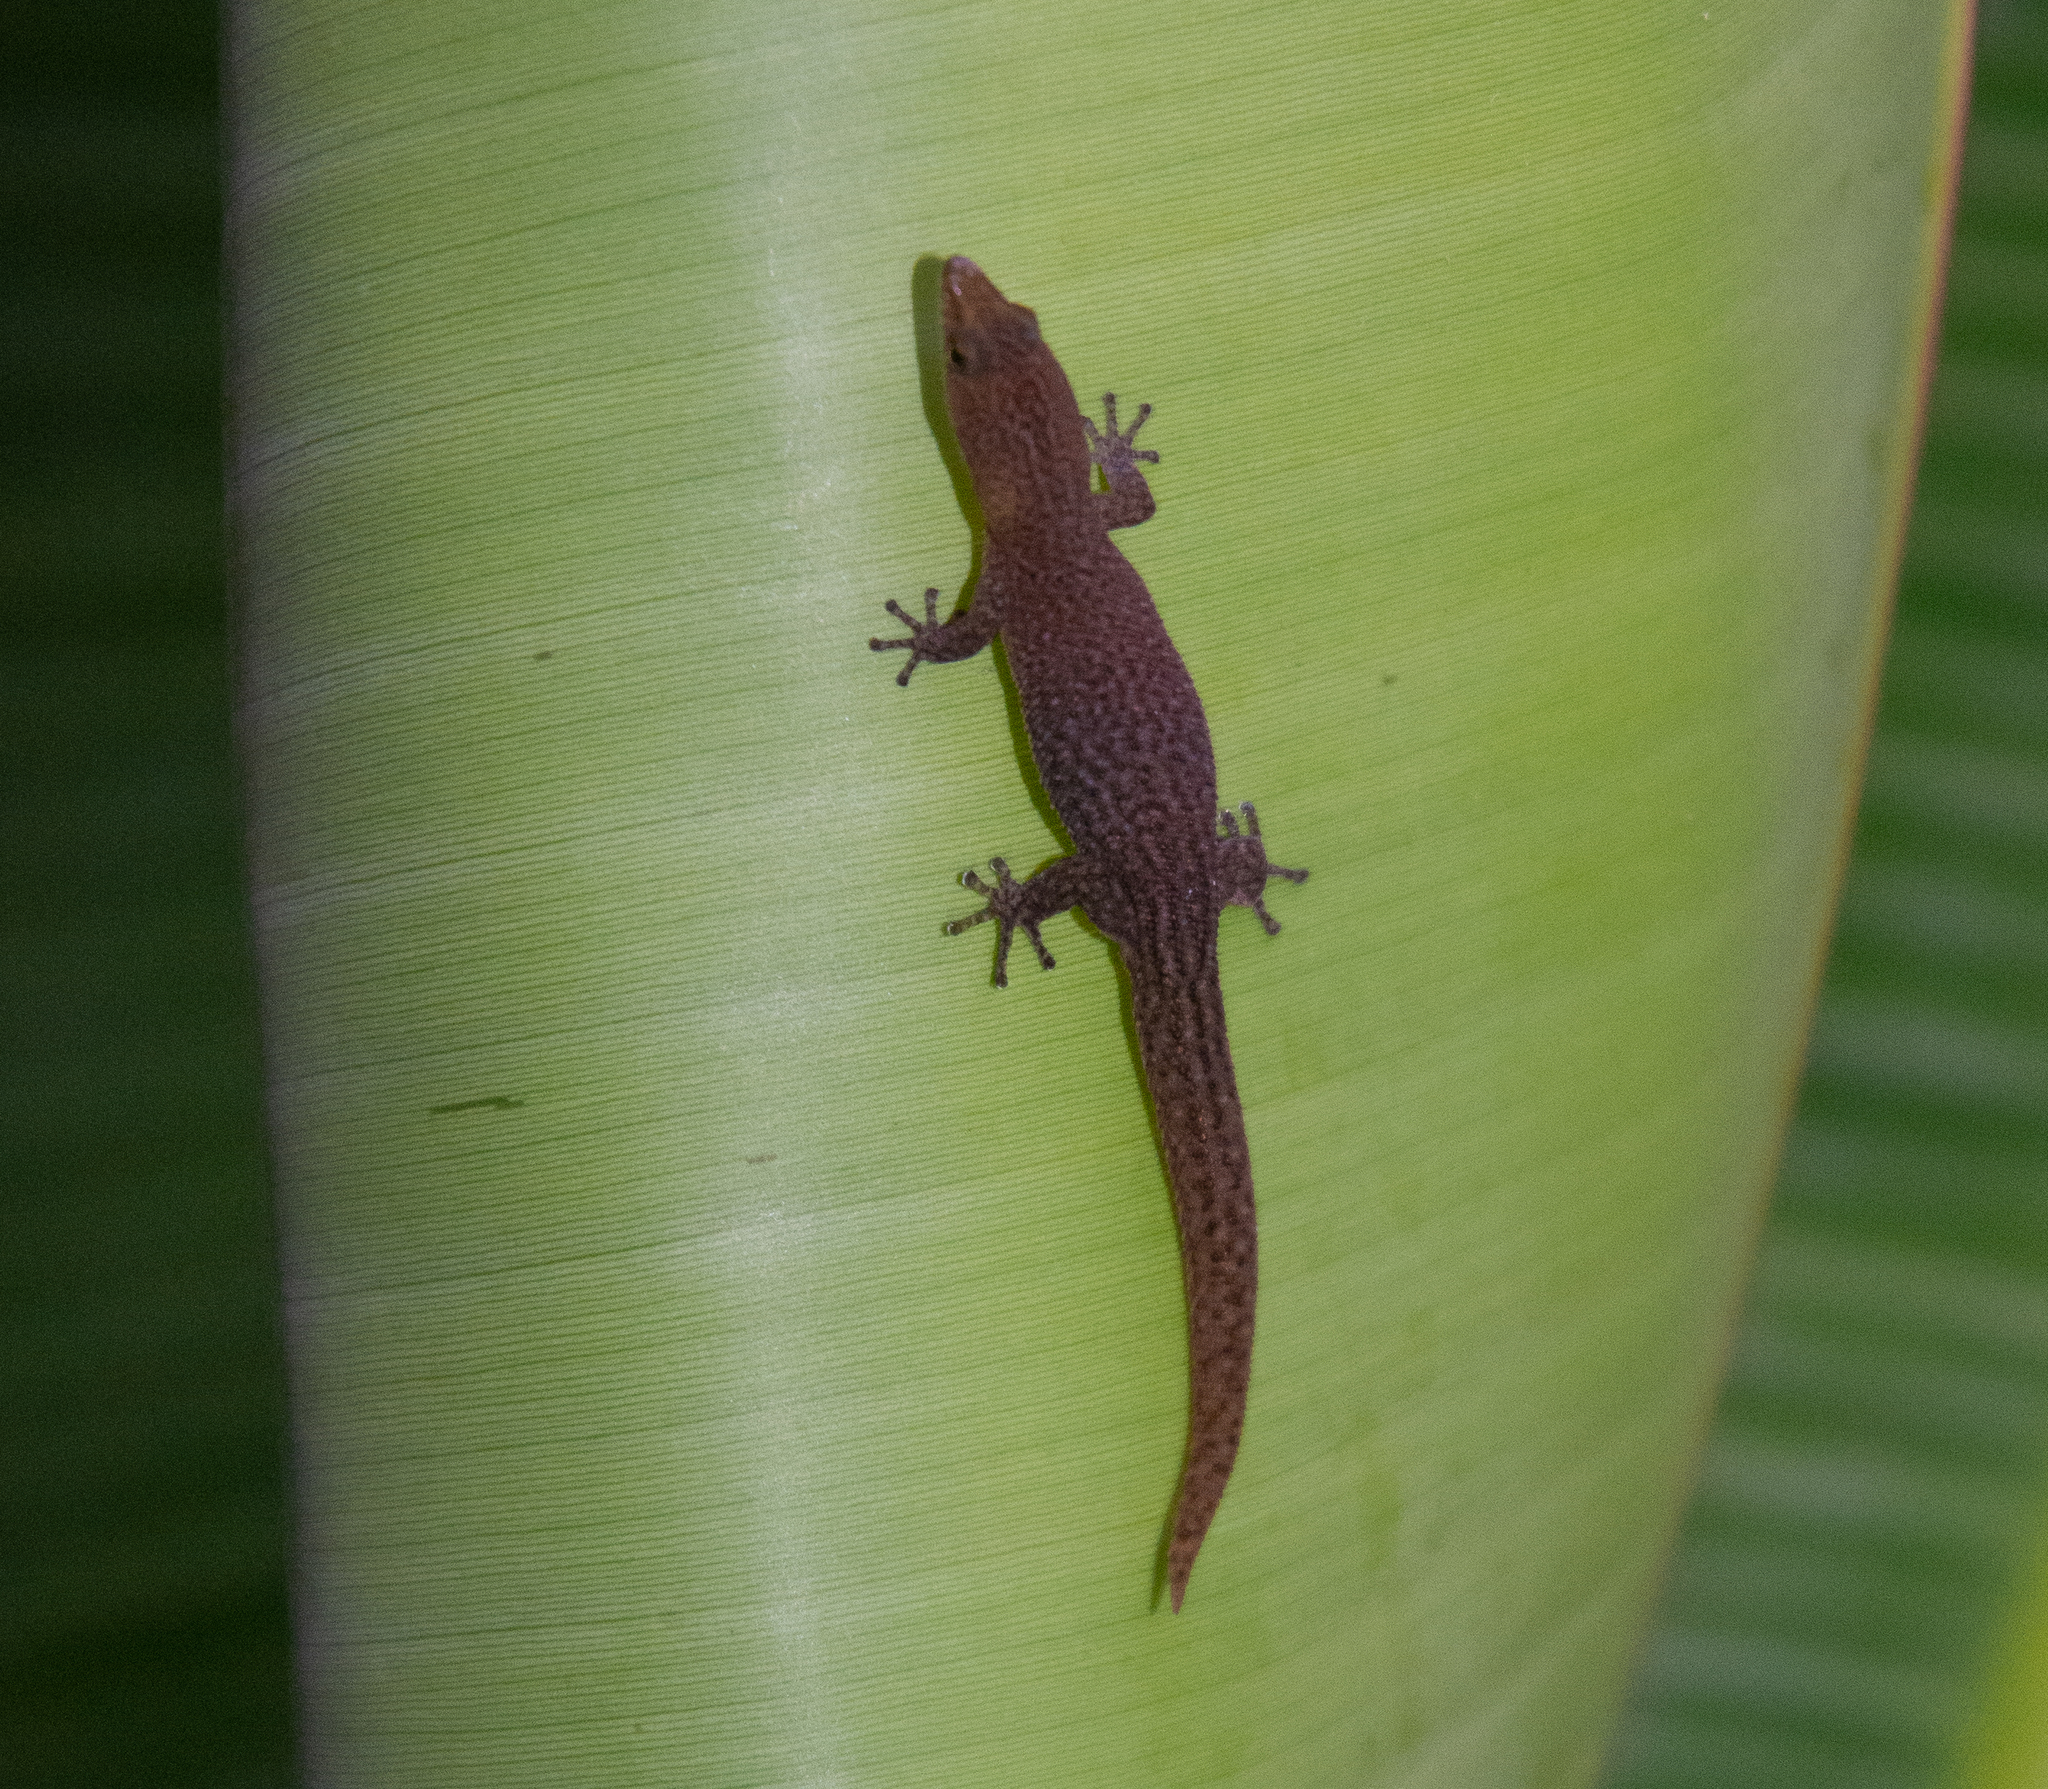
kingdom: Animalia
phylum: Chordata
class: Squamata
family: Sphaerodactylidae
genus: Sphaerodactylus
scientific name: Sphaerodactylus argivus
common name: Cayman least gecko
